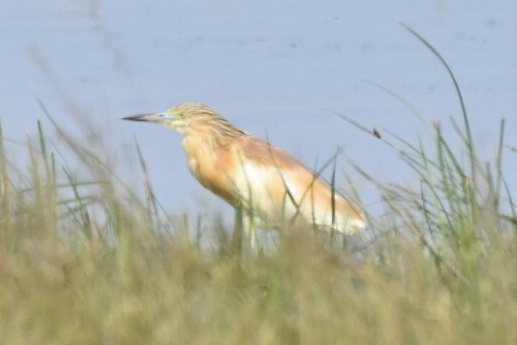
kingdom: Animalia
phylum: Chordata
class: Aves
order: Pelecaniformes
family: Ardeidae
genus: Ardeola
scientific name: Ardeola ralloides
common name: Squacco heron
